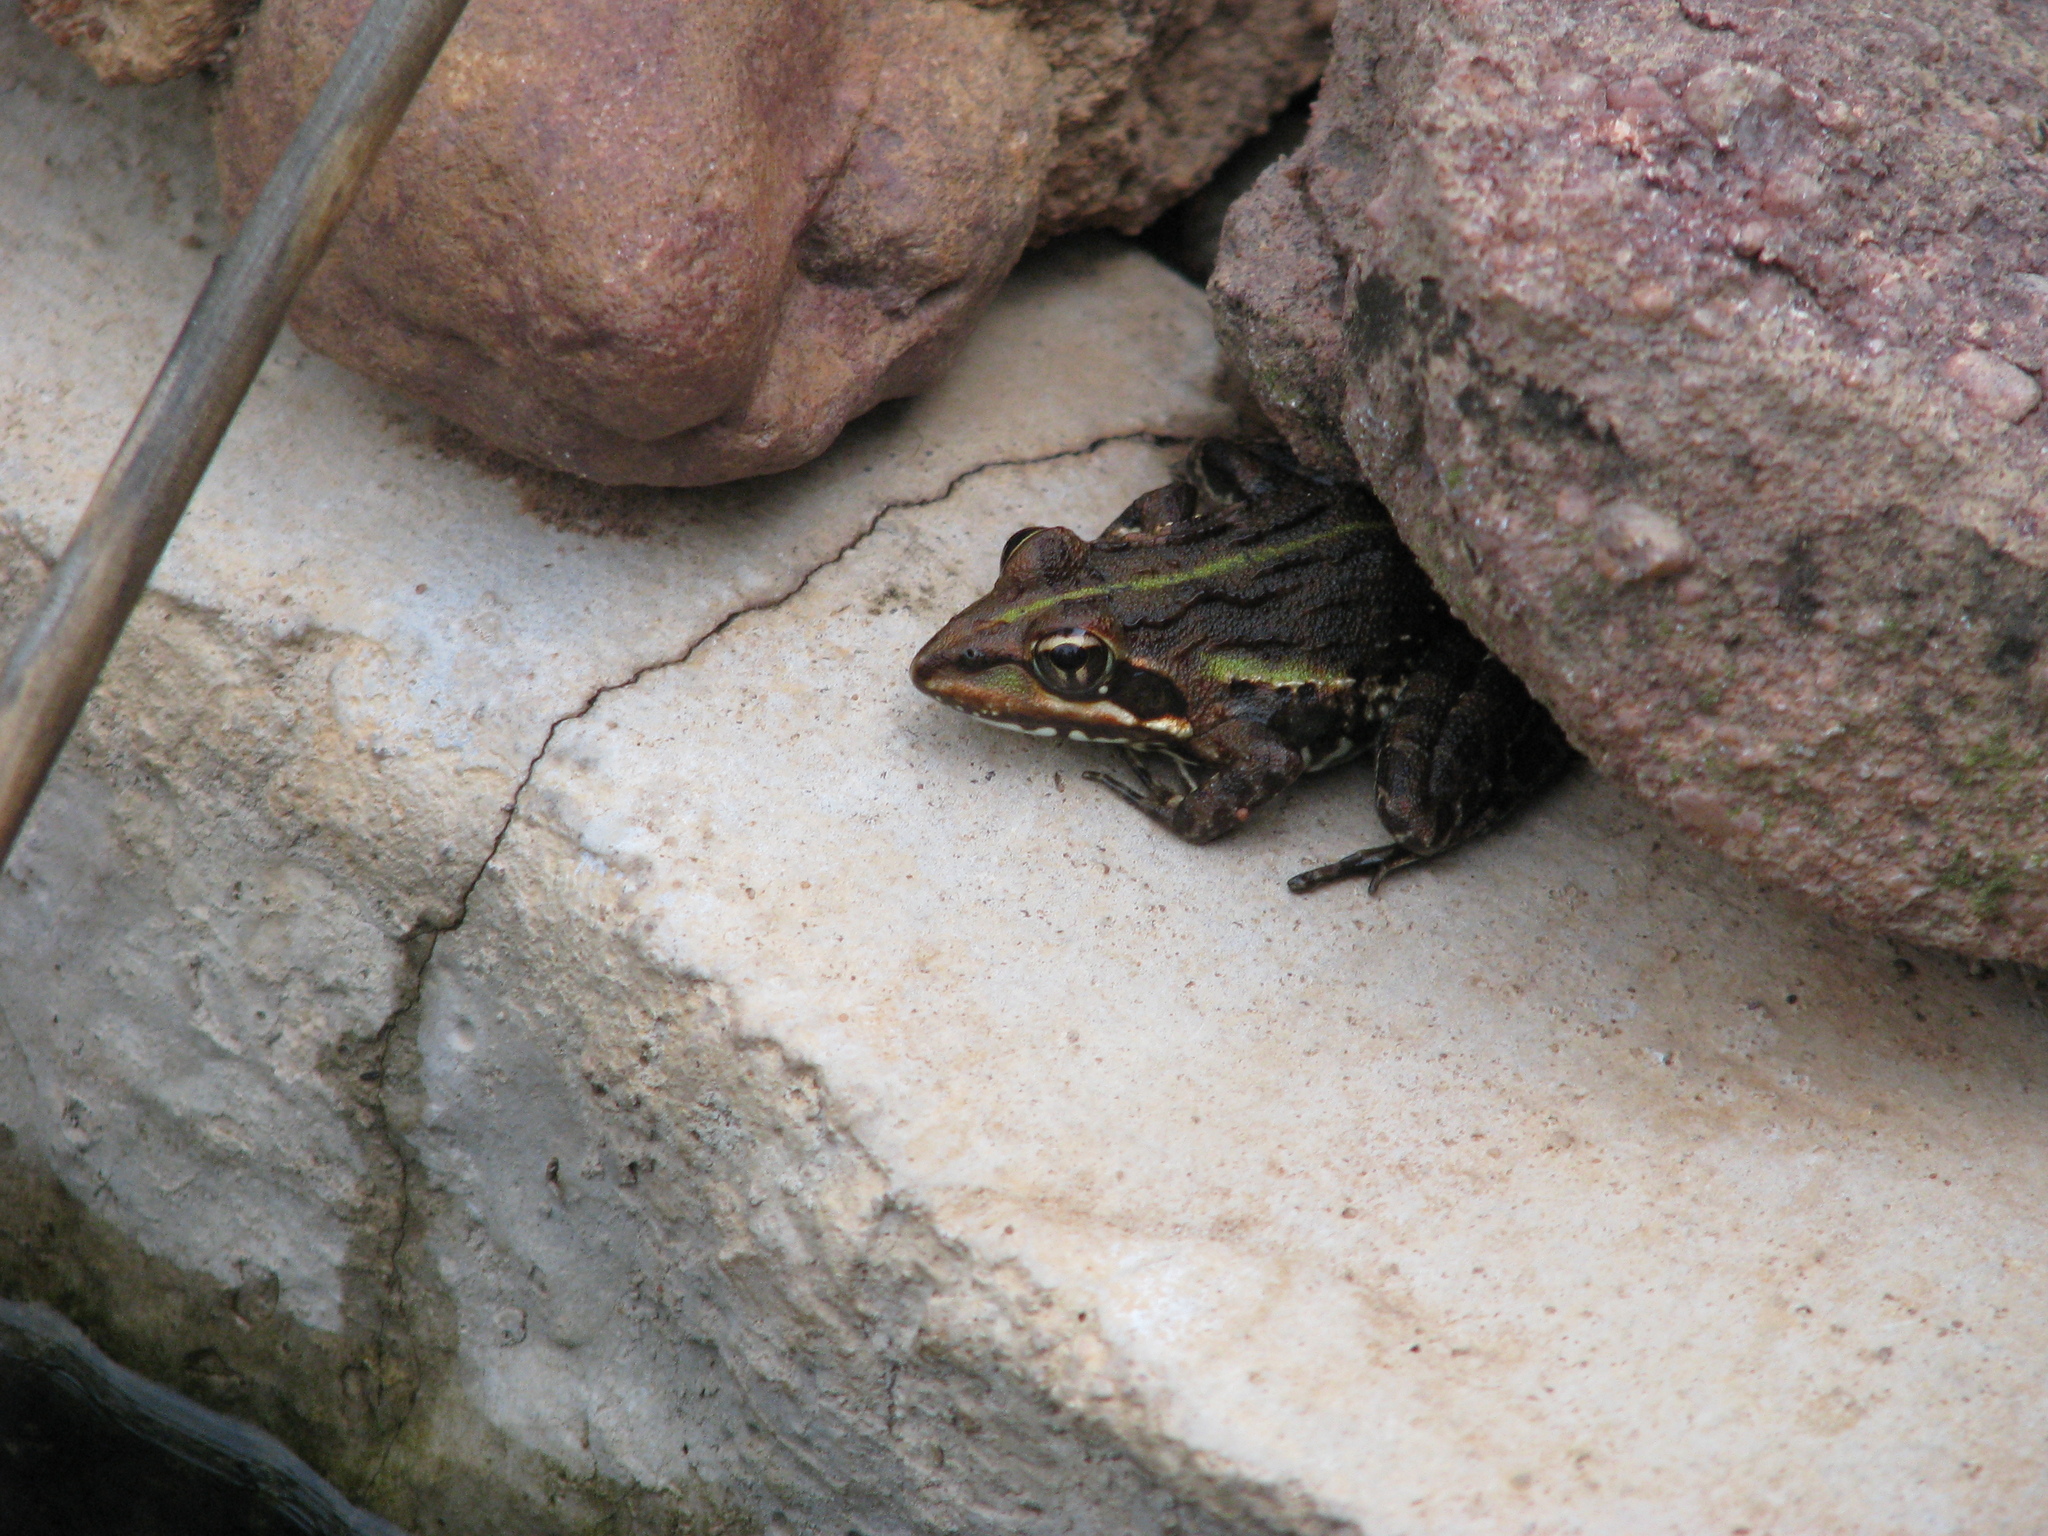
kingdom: Animalia
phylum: Chordata
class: Amphibia
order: Anura
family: Pyxicephalidae
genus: Amietia
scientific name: Amietia delalandii
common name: Delalande's river frog
